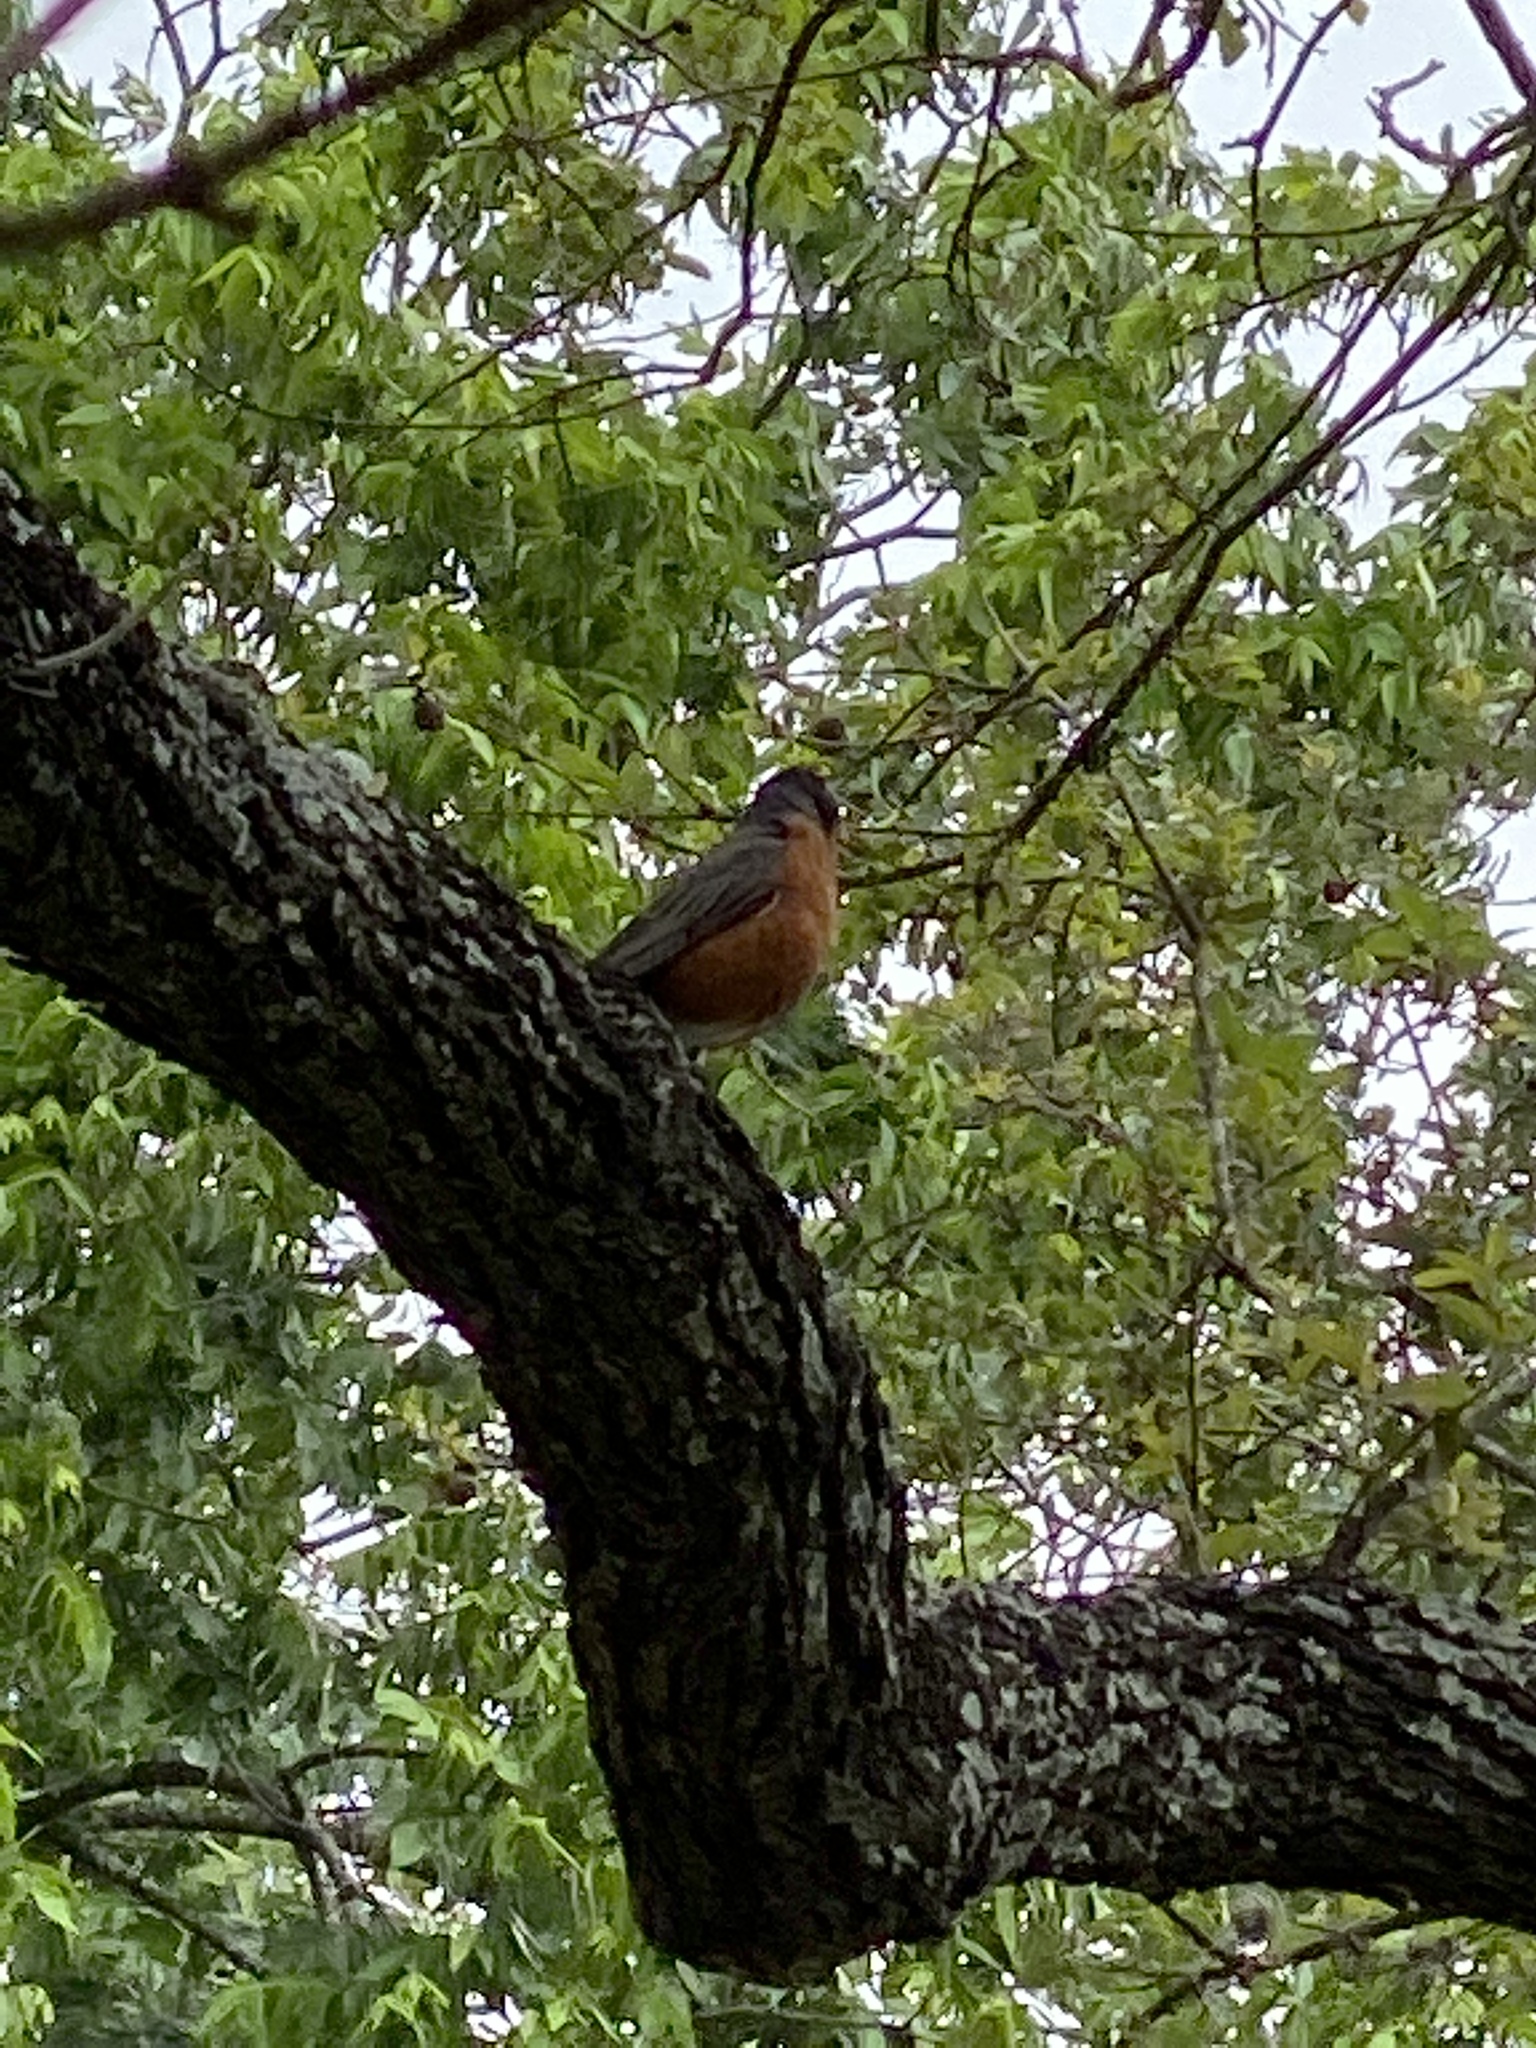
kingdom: Animalia
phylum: Chordata
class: Aves
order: Passeriformes
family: Turdidae
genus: Turdus
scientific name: Turdus migratorius
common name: American robin
